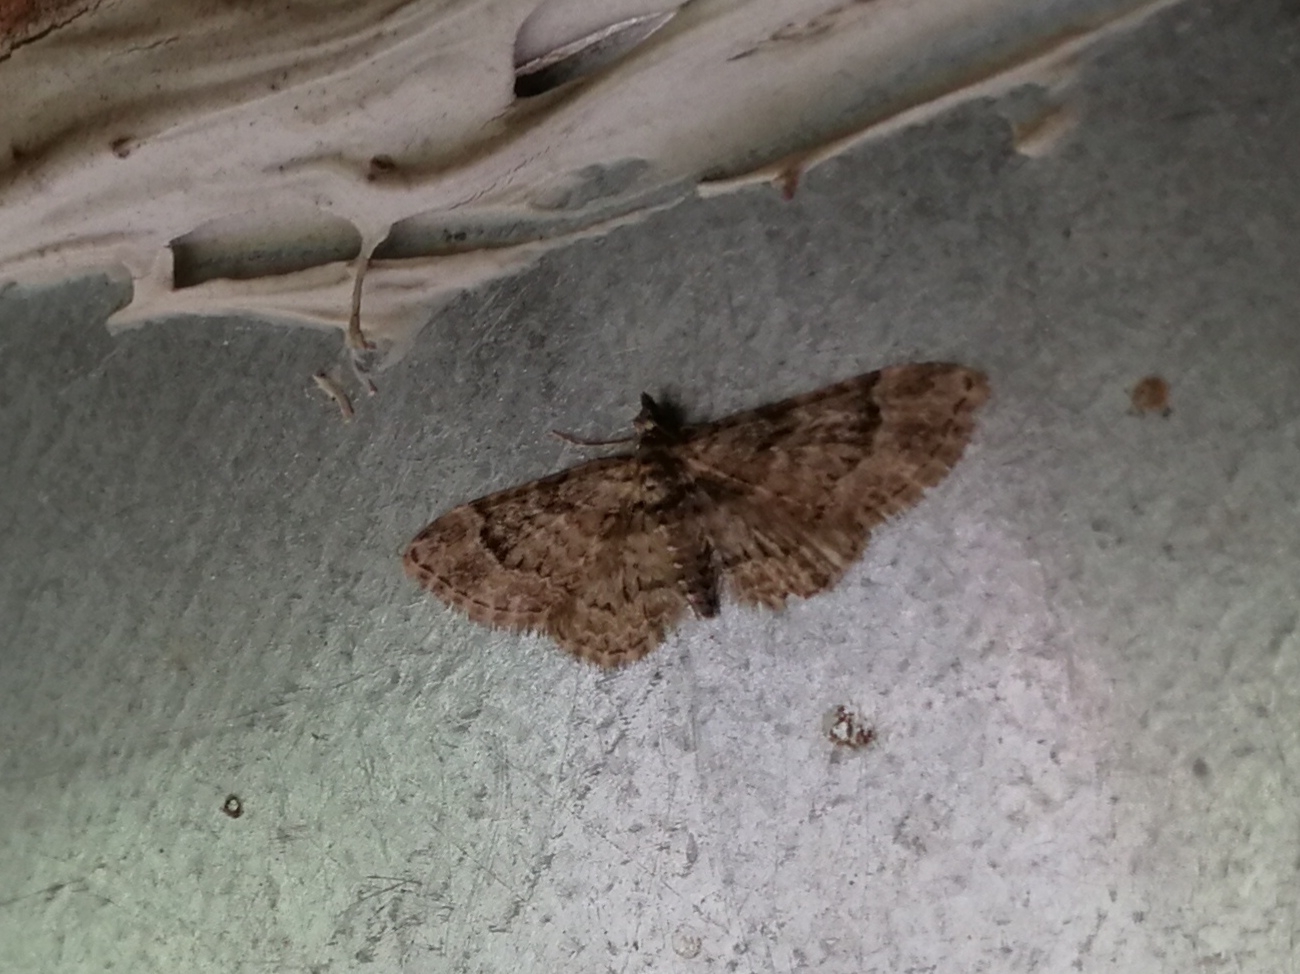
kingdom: Animalia
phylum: Arthropoda
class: Insecta
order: Lepidoptera
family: Geometridae
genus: Gymnoscelis
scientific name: Gymnoscelis rufifasciata
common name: Double-striped pug
